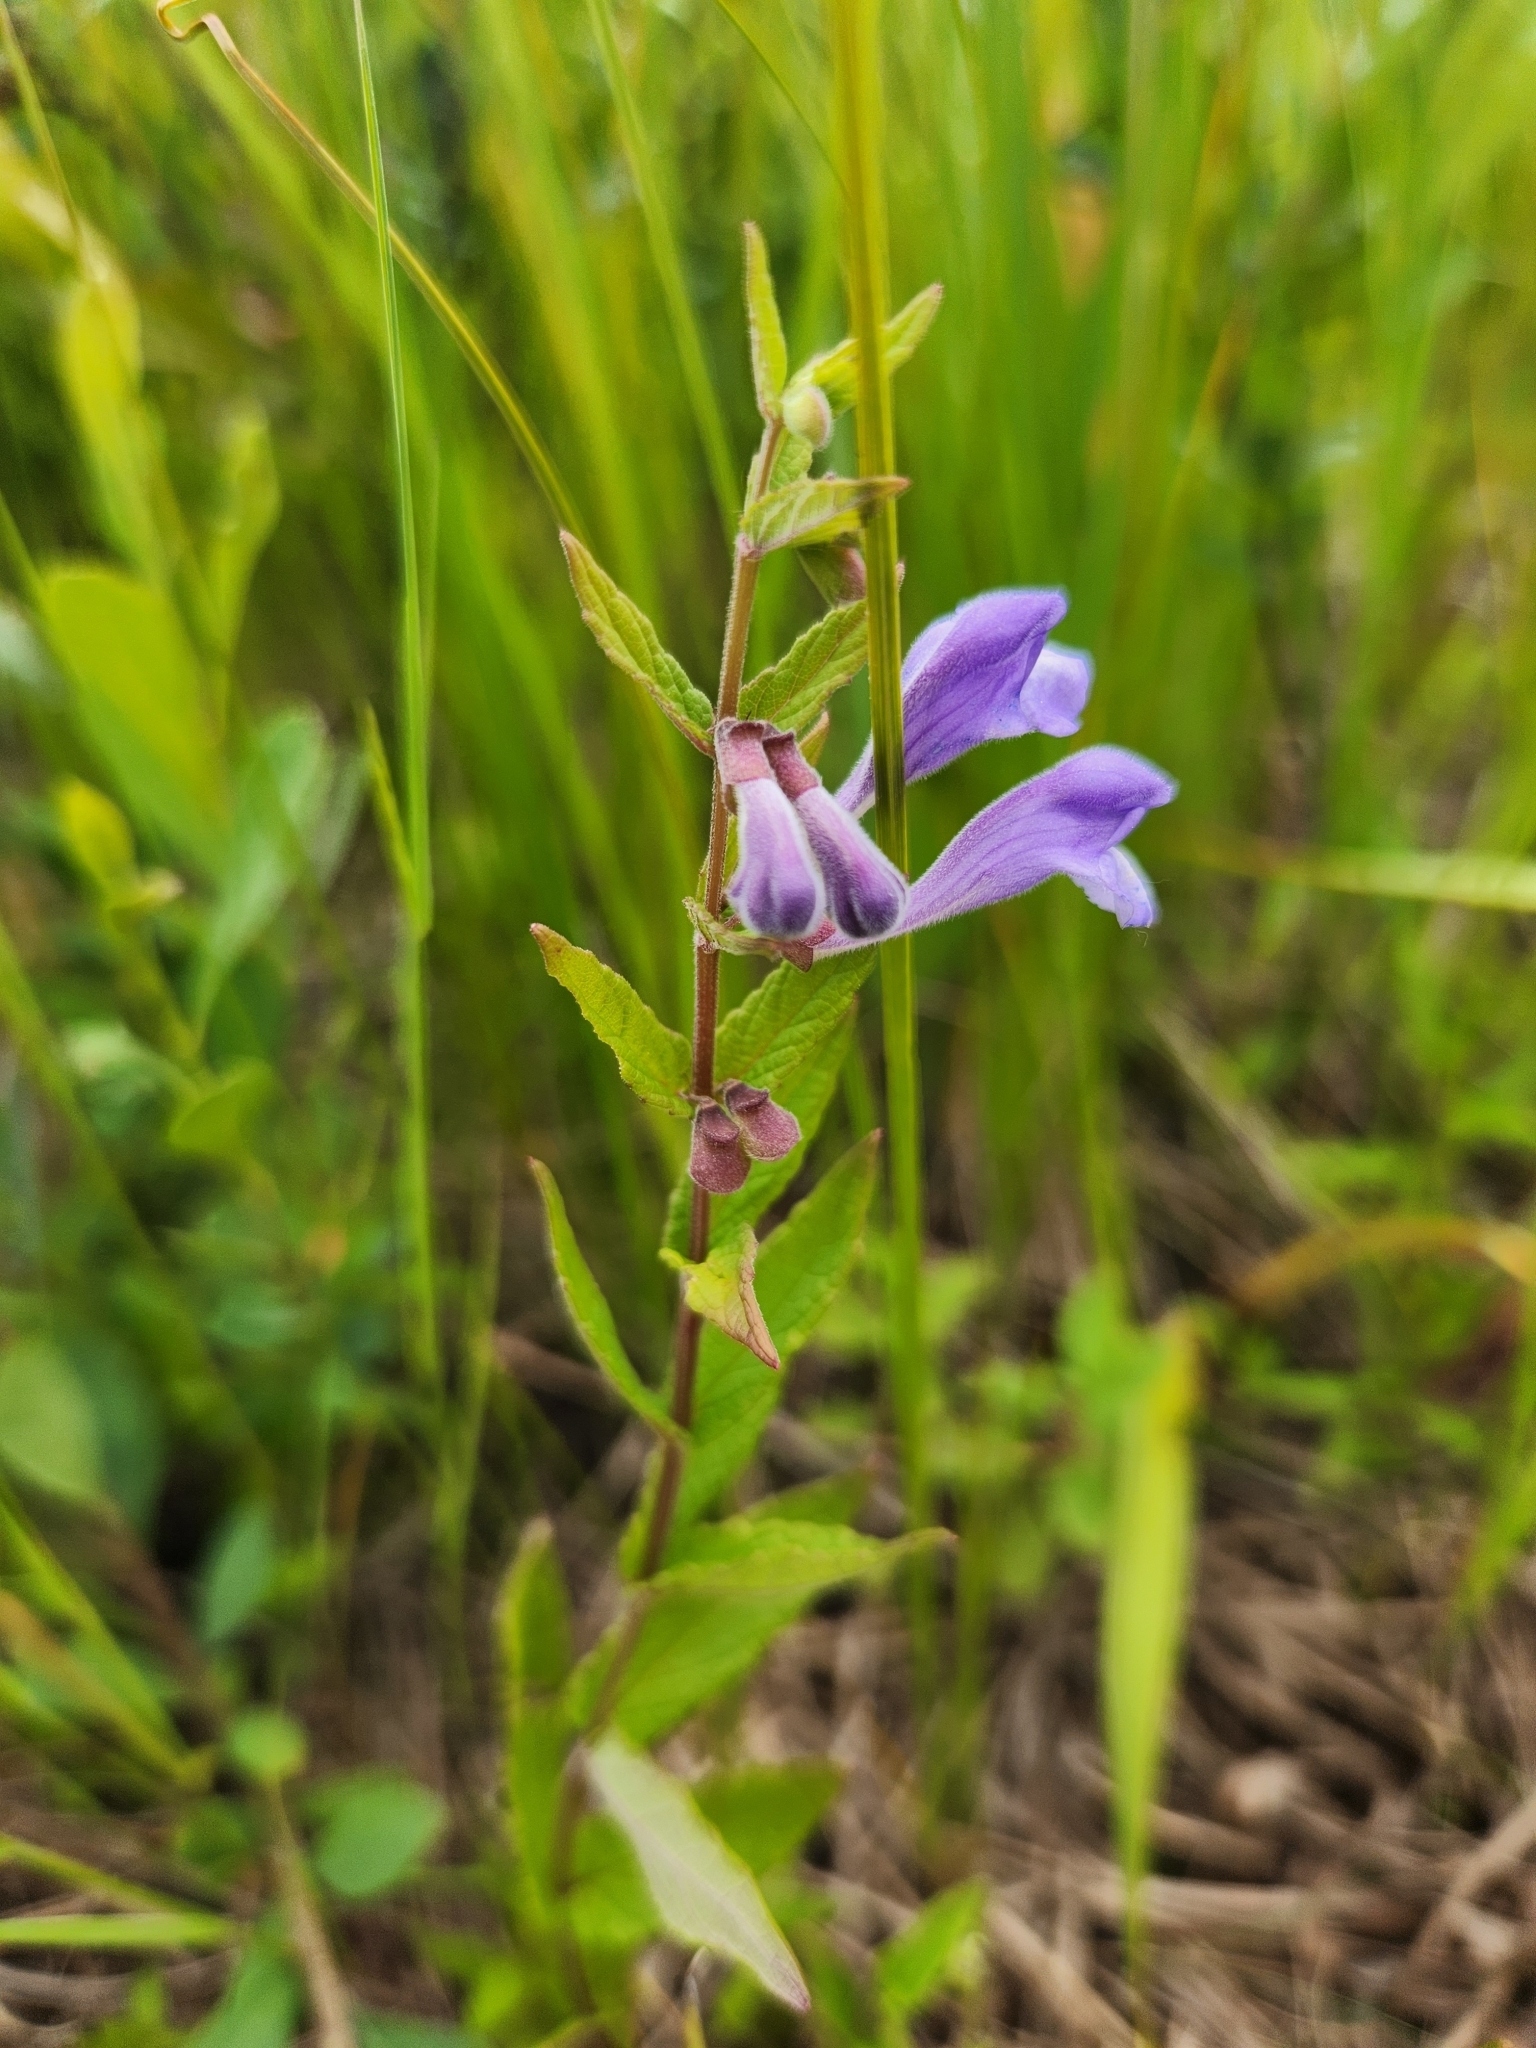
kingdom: Plantae
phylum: Tracheophyta
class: Magnoliopsida
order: Lamiales
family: Lamiaceae
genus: Scutellaria
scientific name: Scutellaria galericulata
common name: Skullcap
